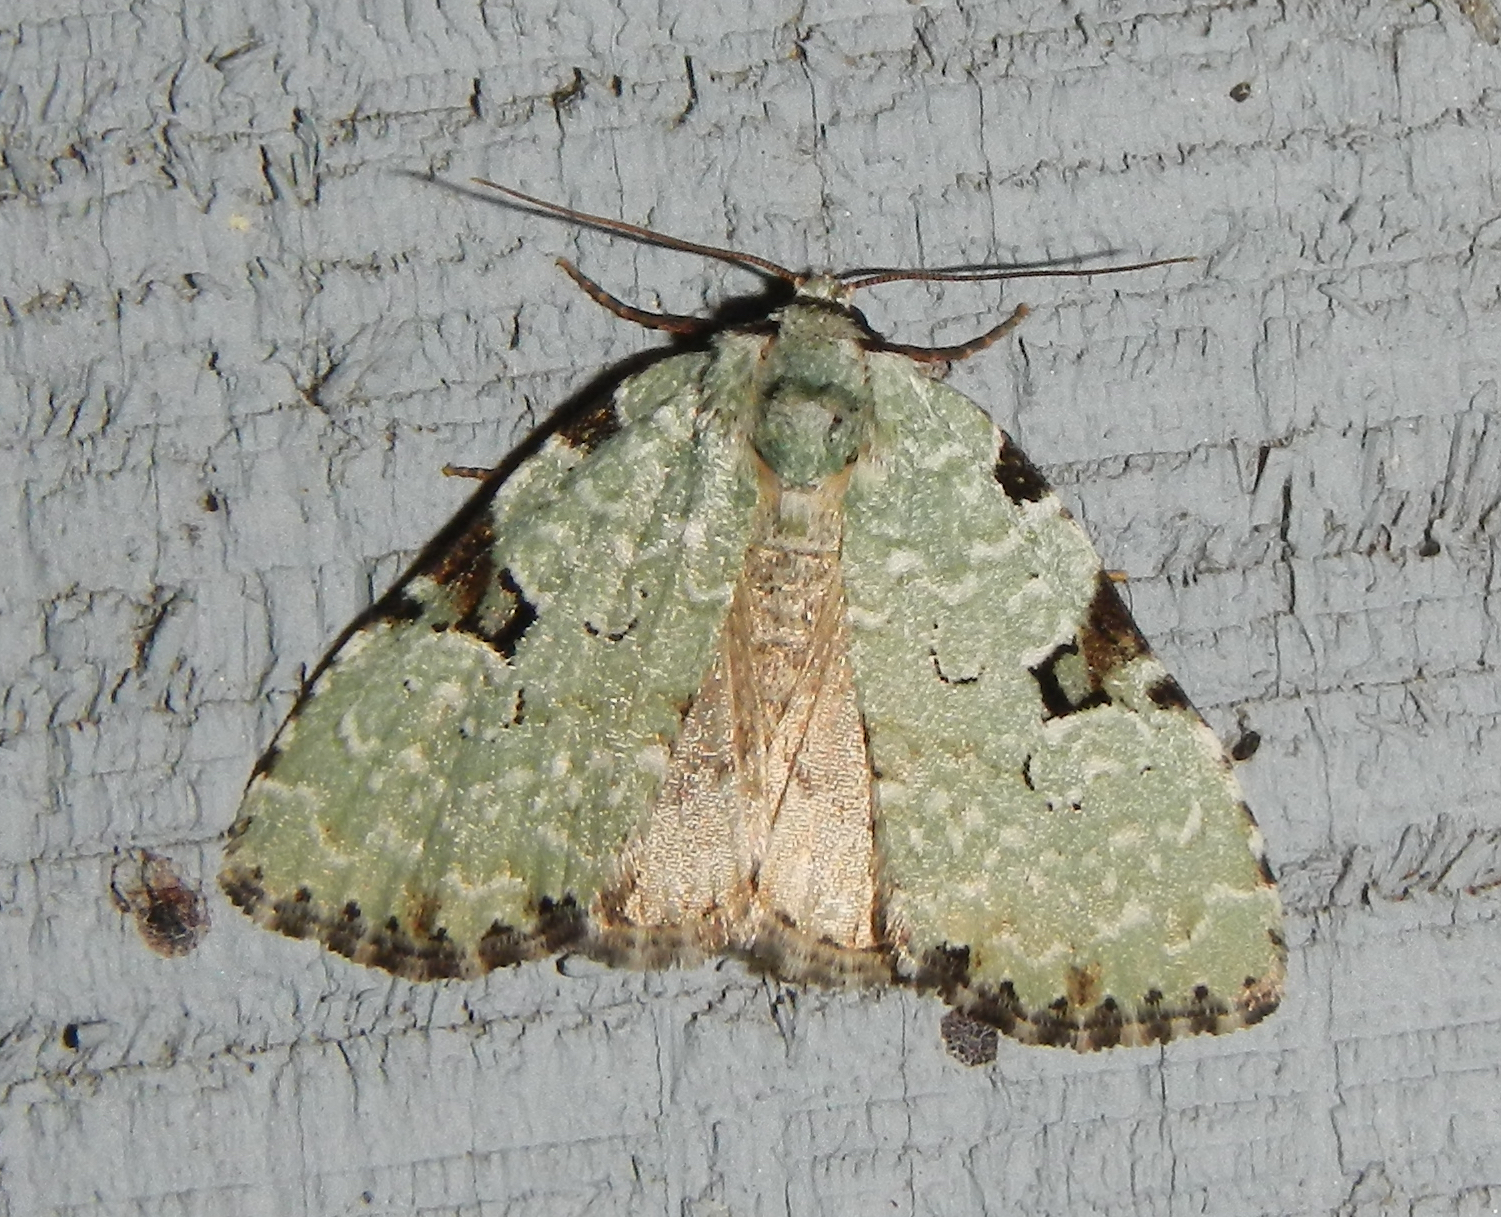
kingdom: Animalia
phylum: Arthropoda
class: Insecta
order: Lepidoptera
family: Noctuidae
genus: Leuconycta
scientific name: Leuconycta diphteroides
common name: Green leuconycta moth
